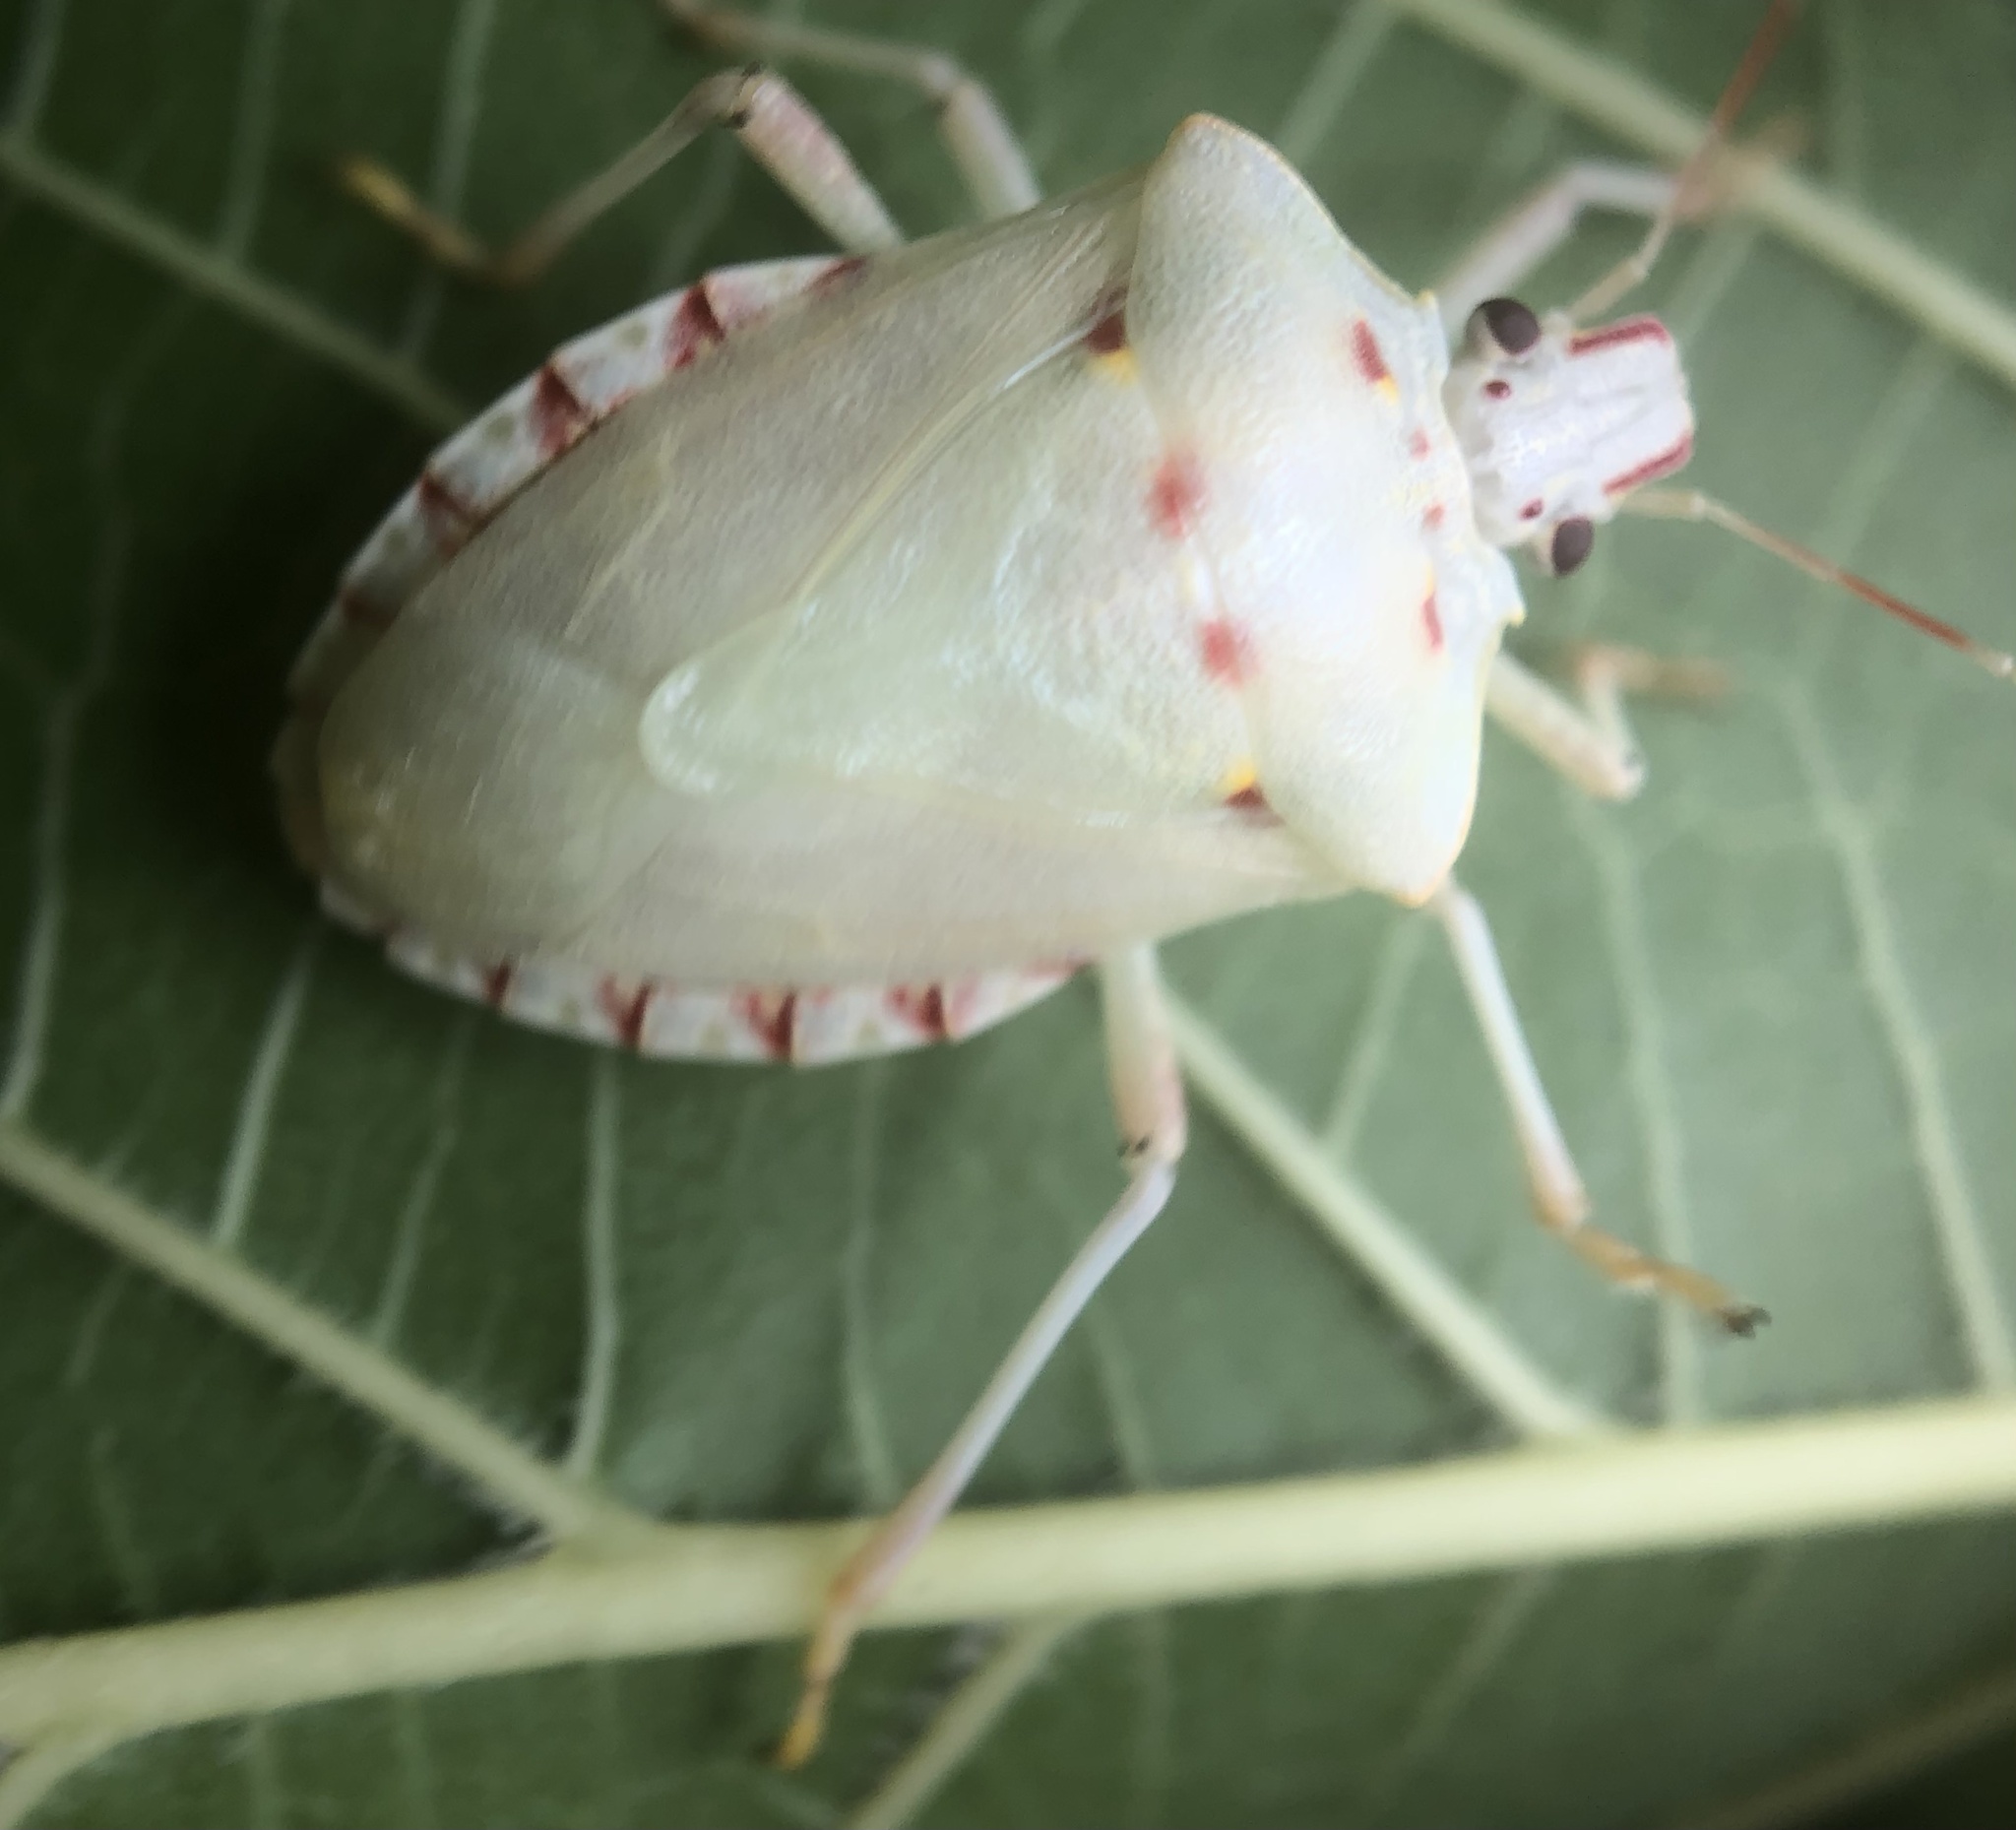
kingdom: Animalia
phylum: Arthropoda
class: Insecta
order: Hemiptera
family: Pentatomidae
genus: Halyomorpha
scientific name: Halyomorpha halys
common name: Brown marmorated stink bug
